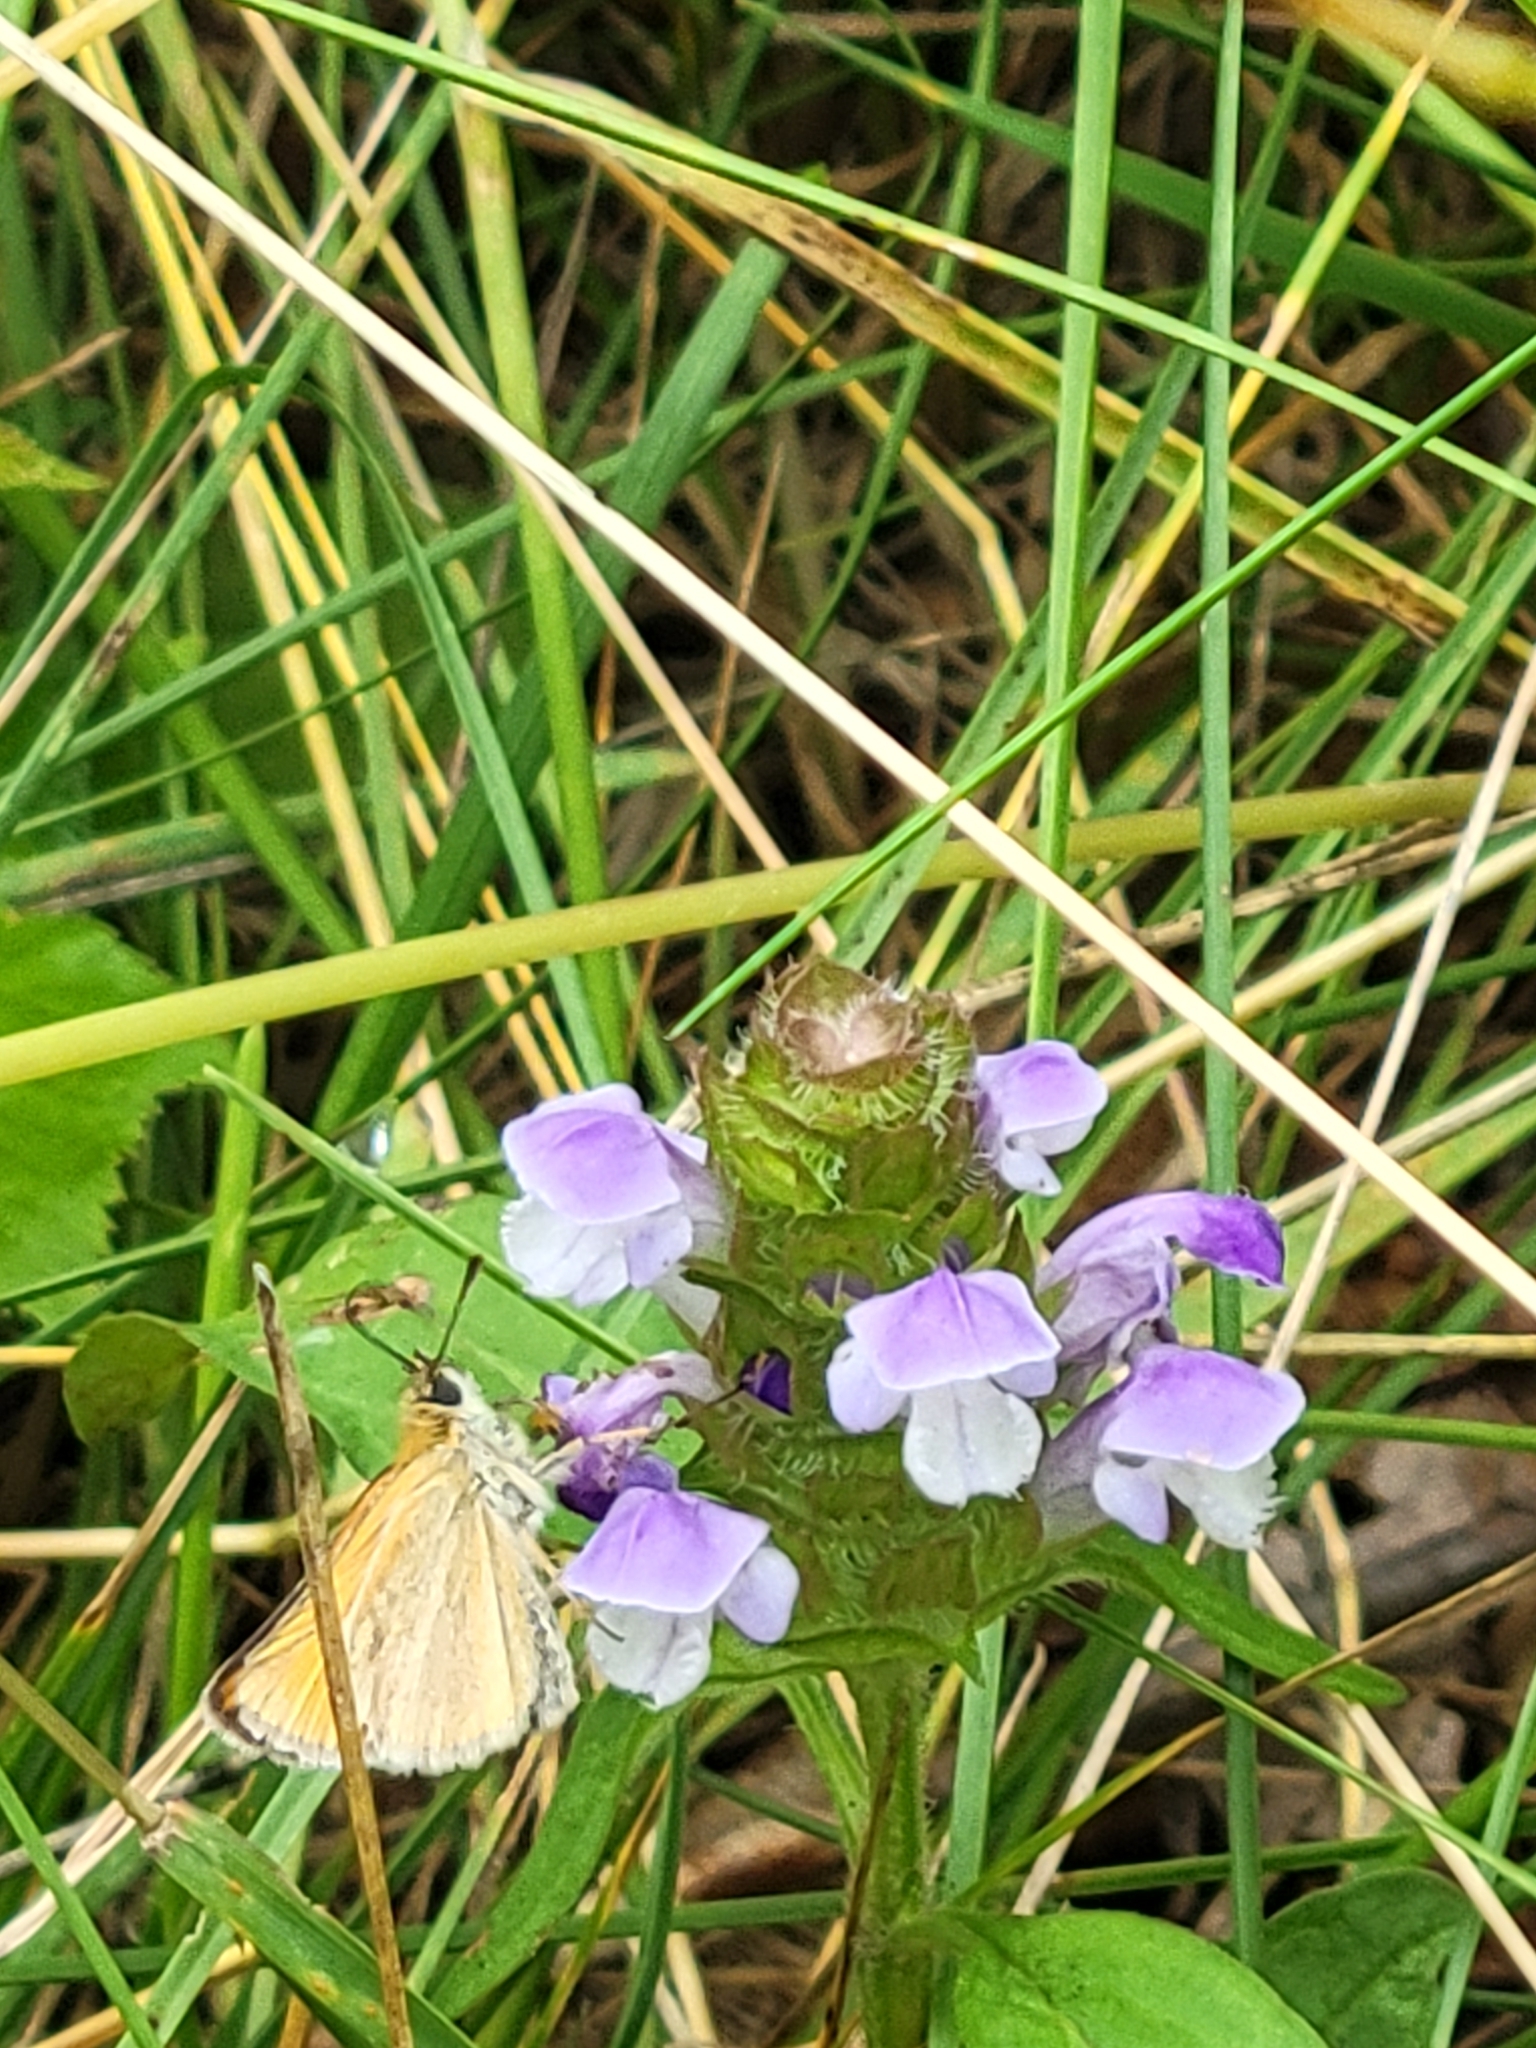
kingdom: Animalia
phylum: Arthropoda
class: Insecta
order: Lepidoptera
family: Hesperiidae
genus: Thymelicus
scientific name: Thymelicus lineola
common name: Essex skipper
